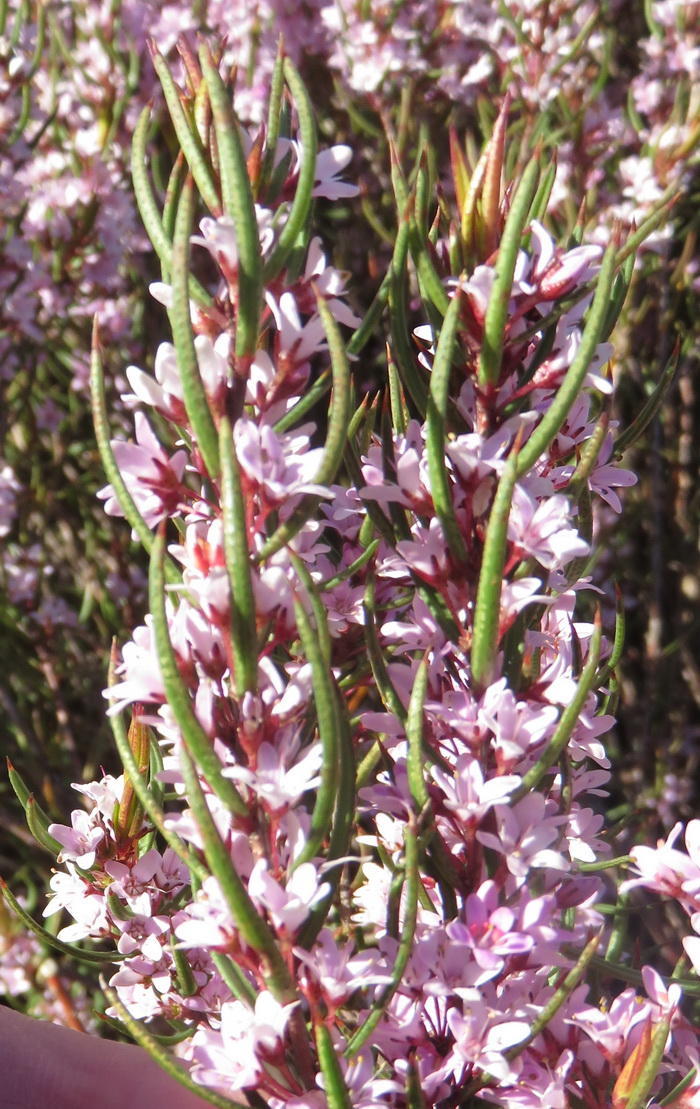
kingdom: Plantae
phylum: Tracheophyta
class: Magnoliopsida
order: Sapindales
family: Rutaceae
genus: Agathosma
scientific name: Agathosma pungens
